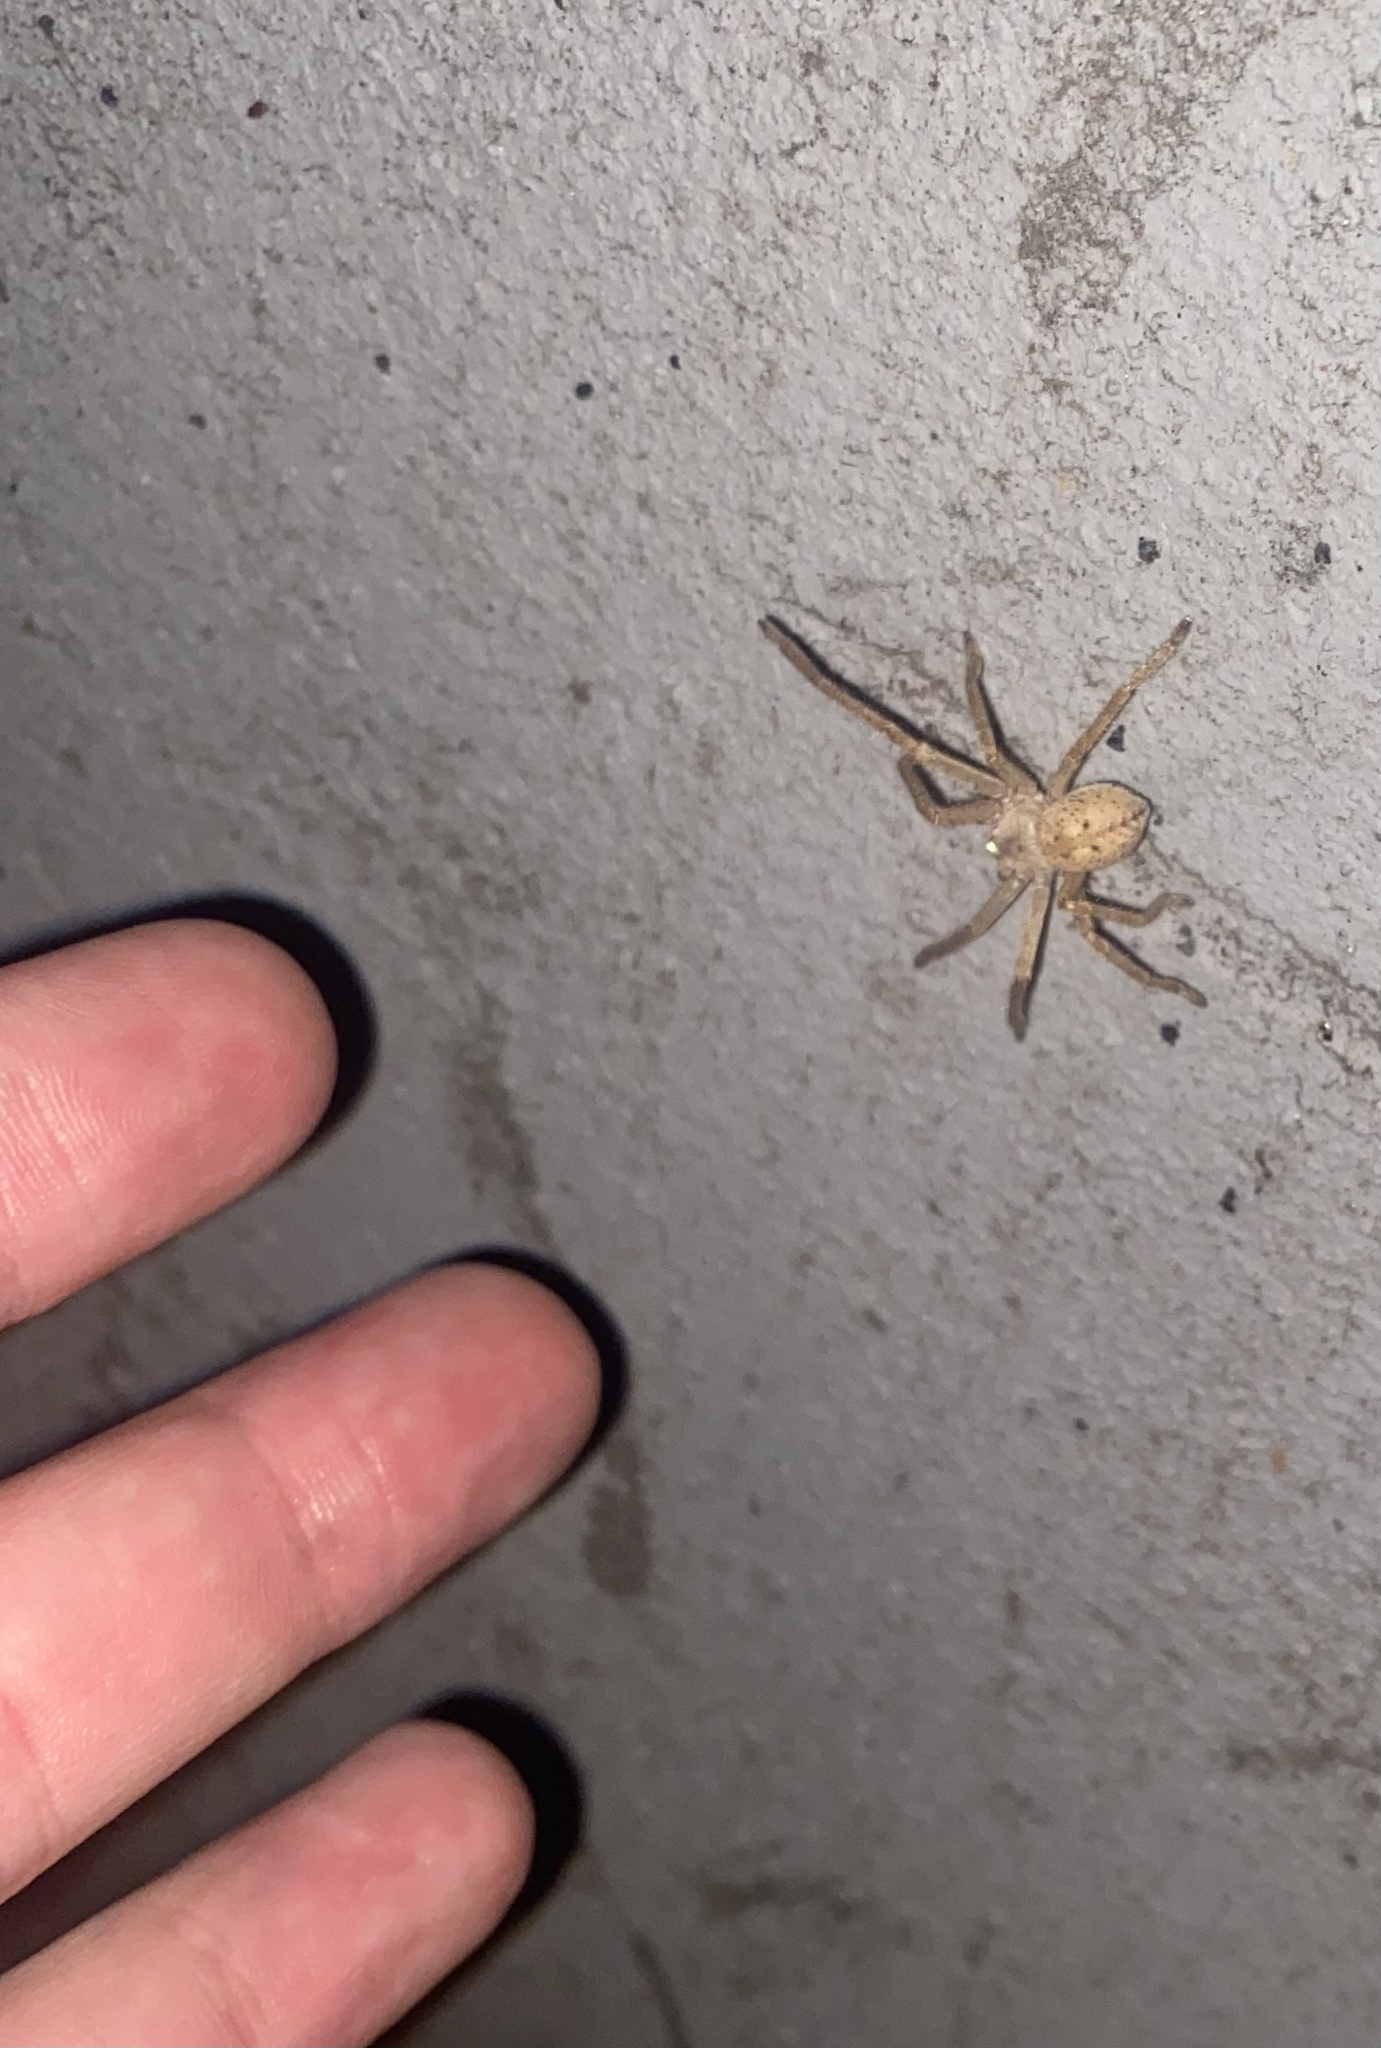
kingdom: Animalia
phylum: Arthropoda
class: Arachnida
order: Araneae
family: Sparassidae
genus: Olios
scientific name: Olios sericeus
